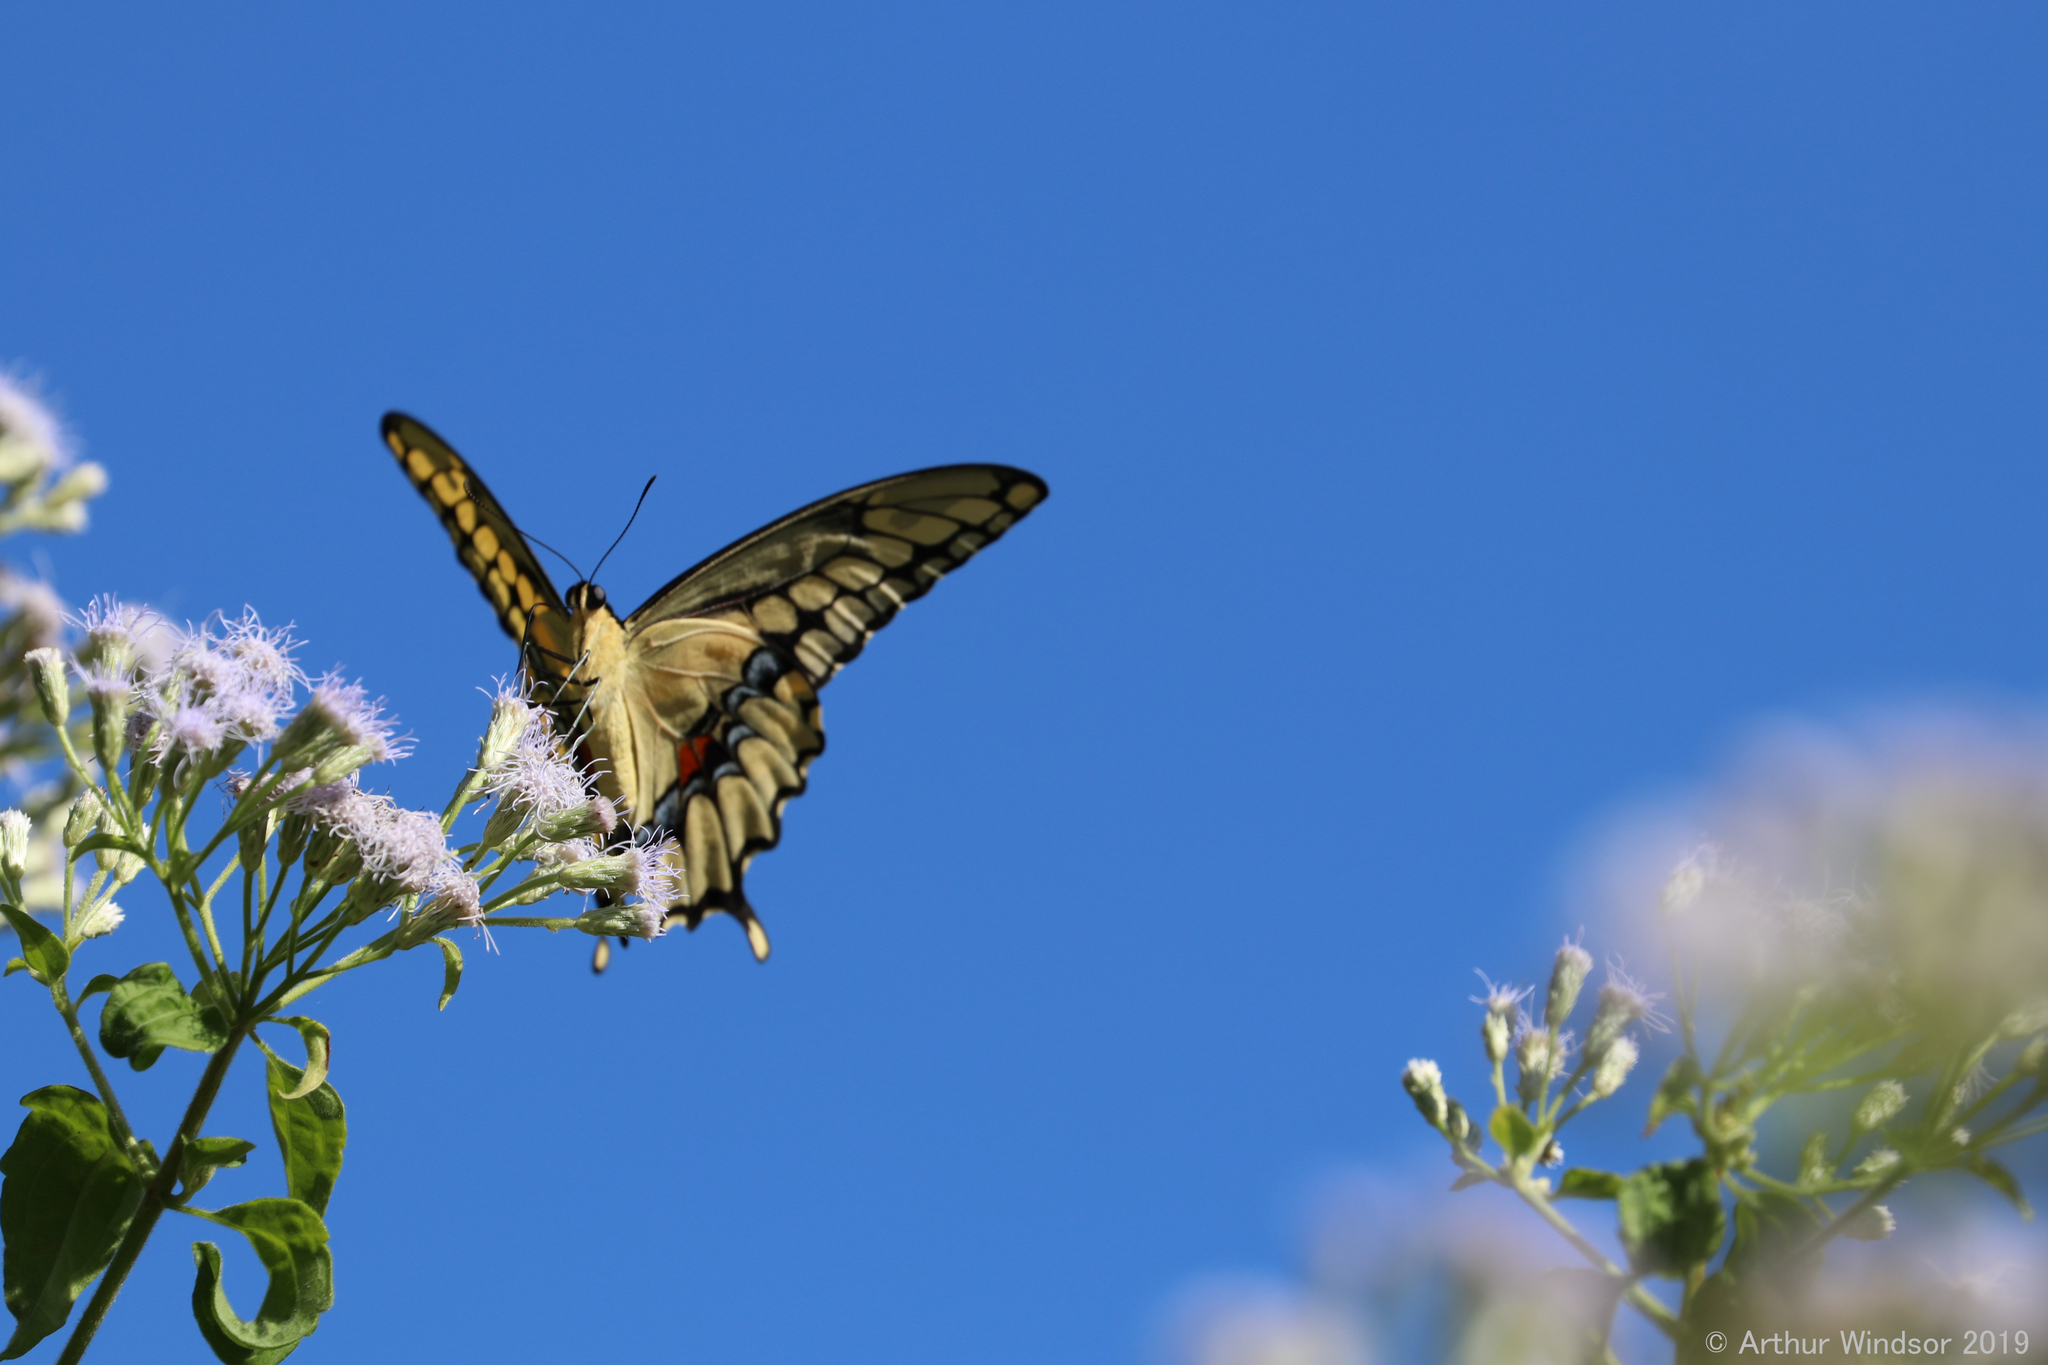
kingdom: Animalia
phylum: Arthropoda
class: Insecta
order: Lepidoptera
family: Papilionidae
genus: Papilio
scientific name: Papilio cresphontes
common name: Giant swallowtail
